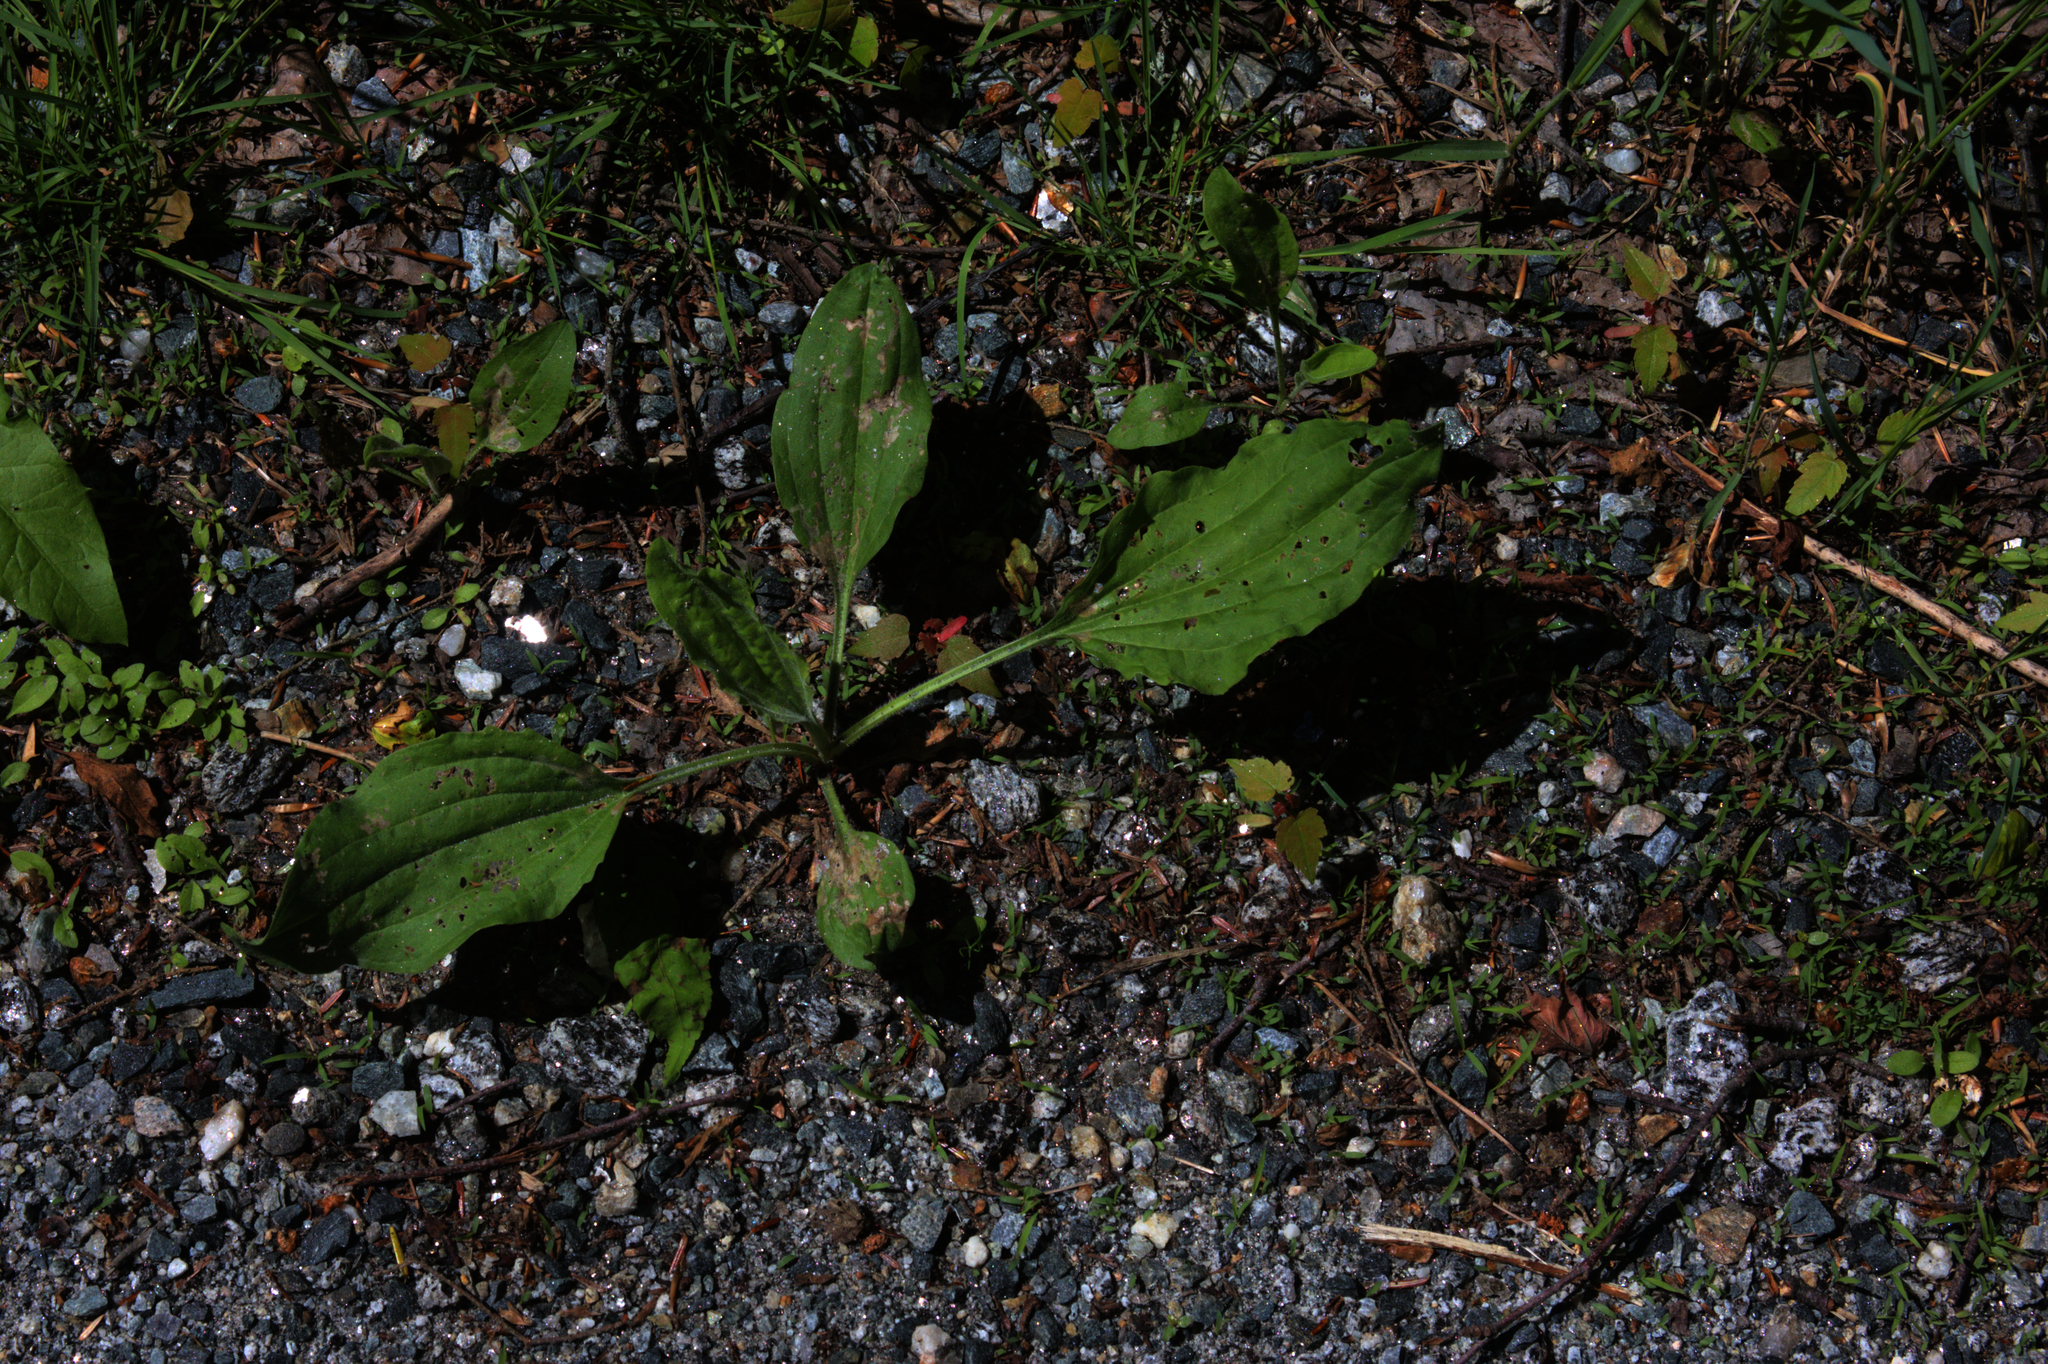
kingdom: Plantae
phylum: Tracheophyta
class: Magnoliopsida
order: Lamiales
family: Plantaginaceae
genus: Plantago
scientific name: Plantago major
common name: Common plantain
